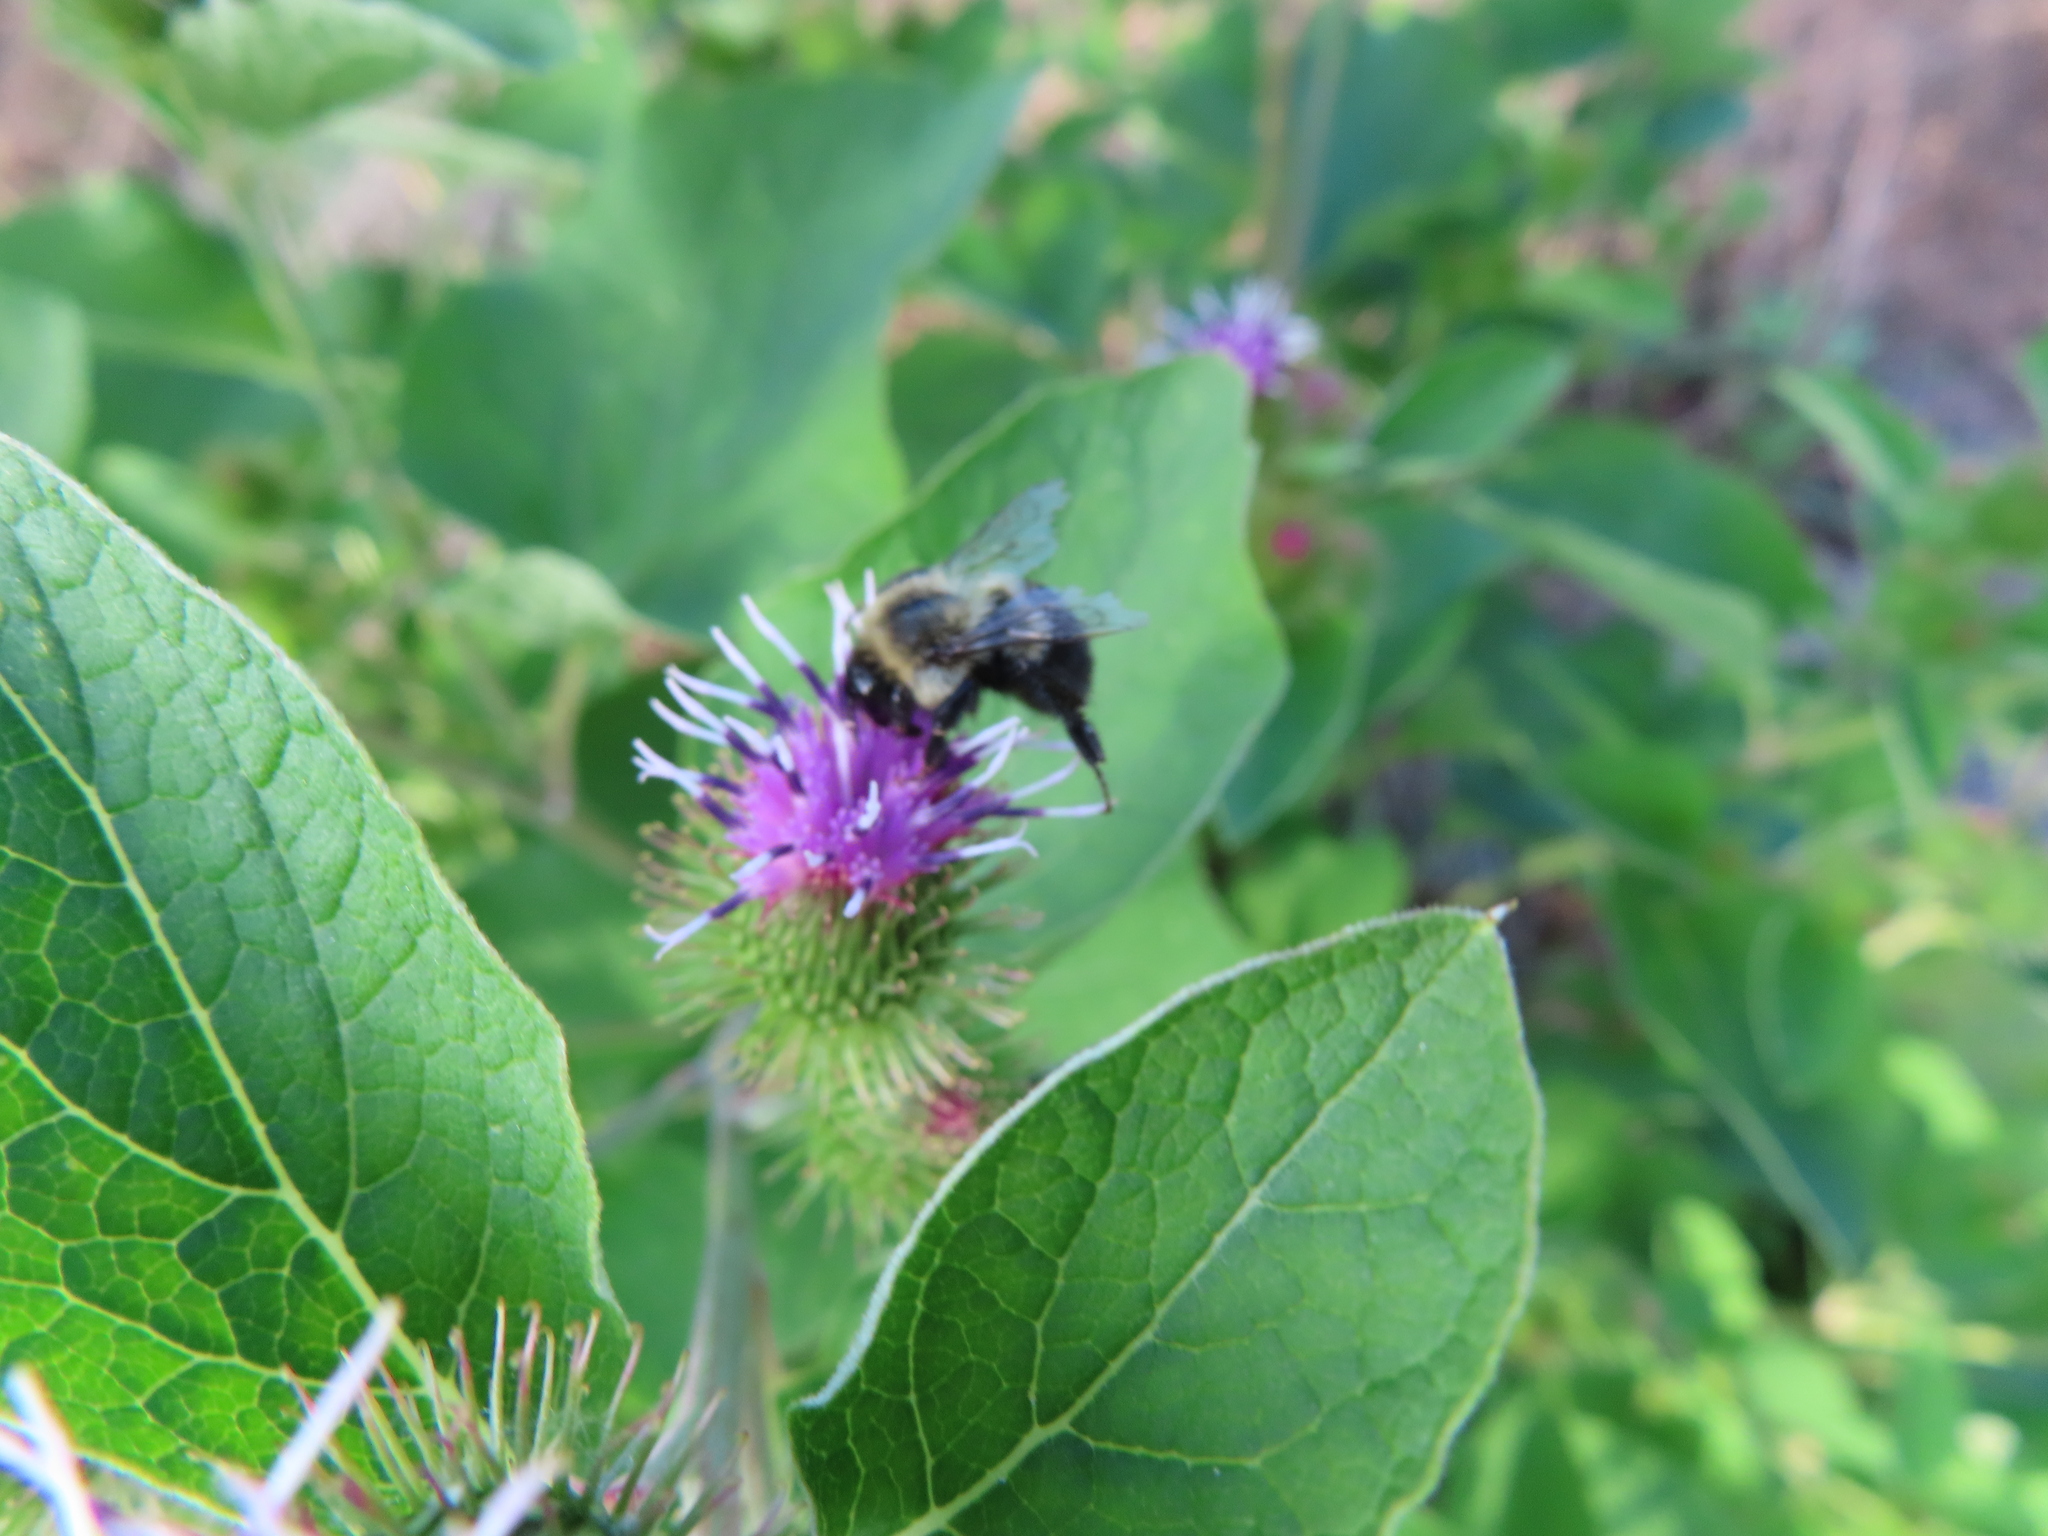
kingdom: Animalia
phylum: Arthropoda
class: Insecta
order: Hymenoptera
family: Apidae
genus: Bombus
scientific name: Bombus impatiens
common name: Common eastern bumble bee
